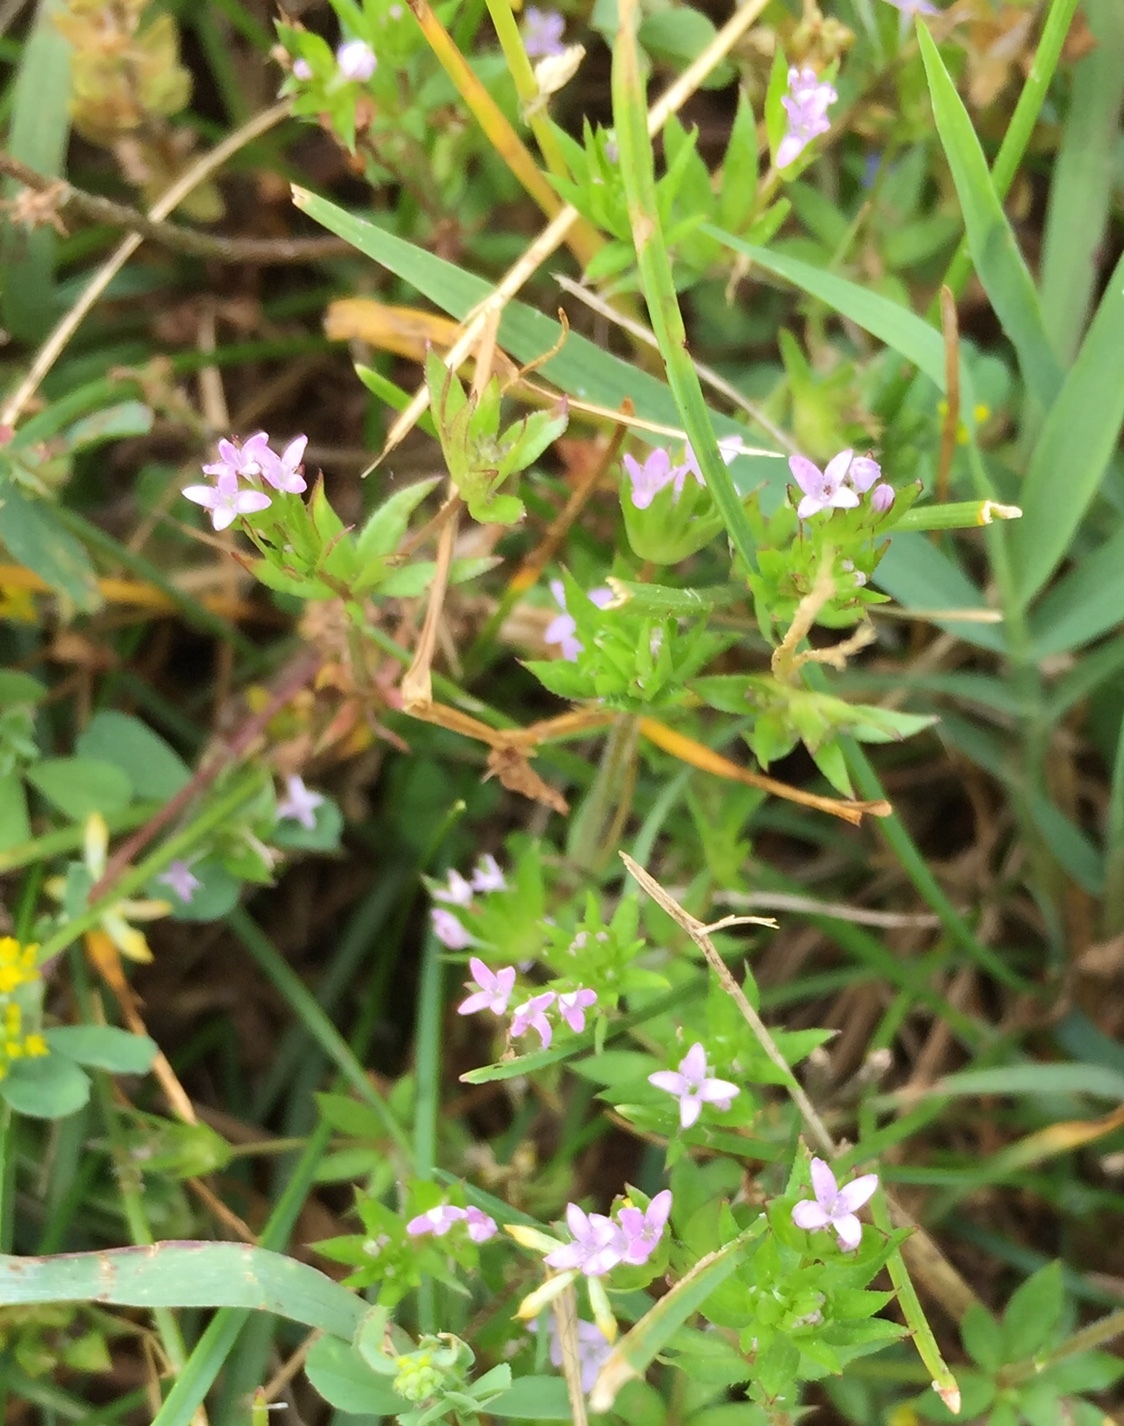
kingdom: Plantae
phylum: Tracheophyta
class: Magnoliopsida
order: Gentianales
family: Rubiaceae
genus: Sherardia
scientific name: Sherardia arvensis
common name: Field madder
